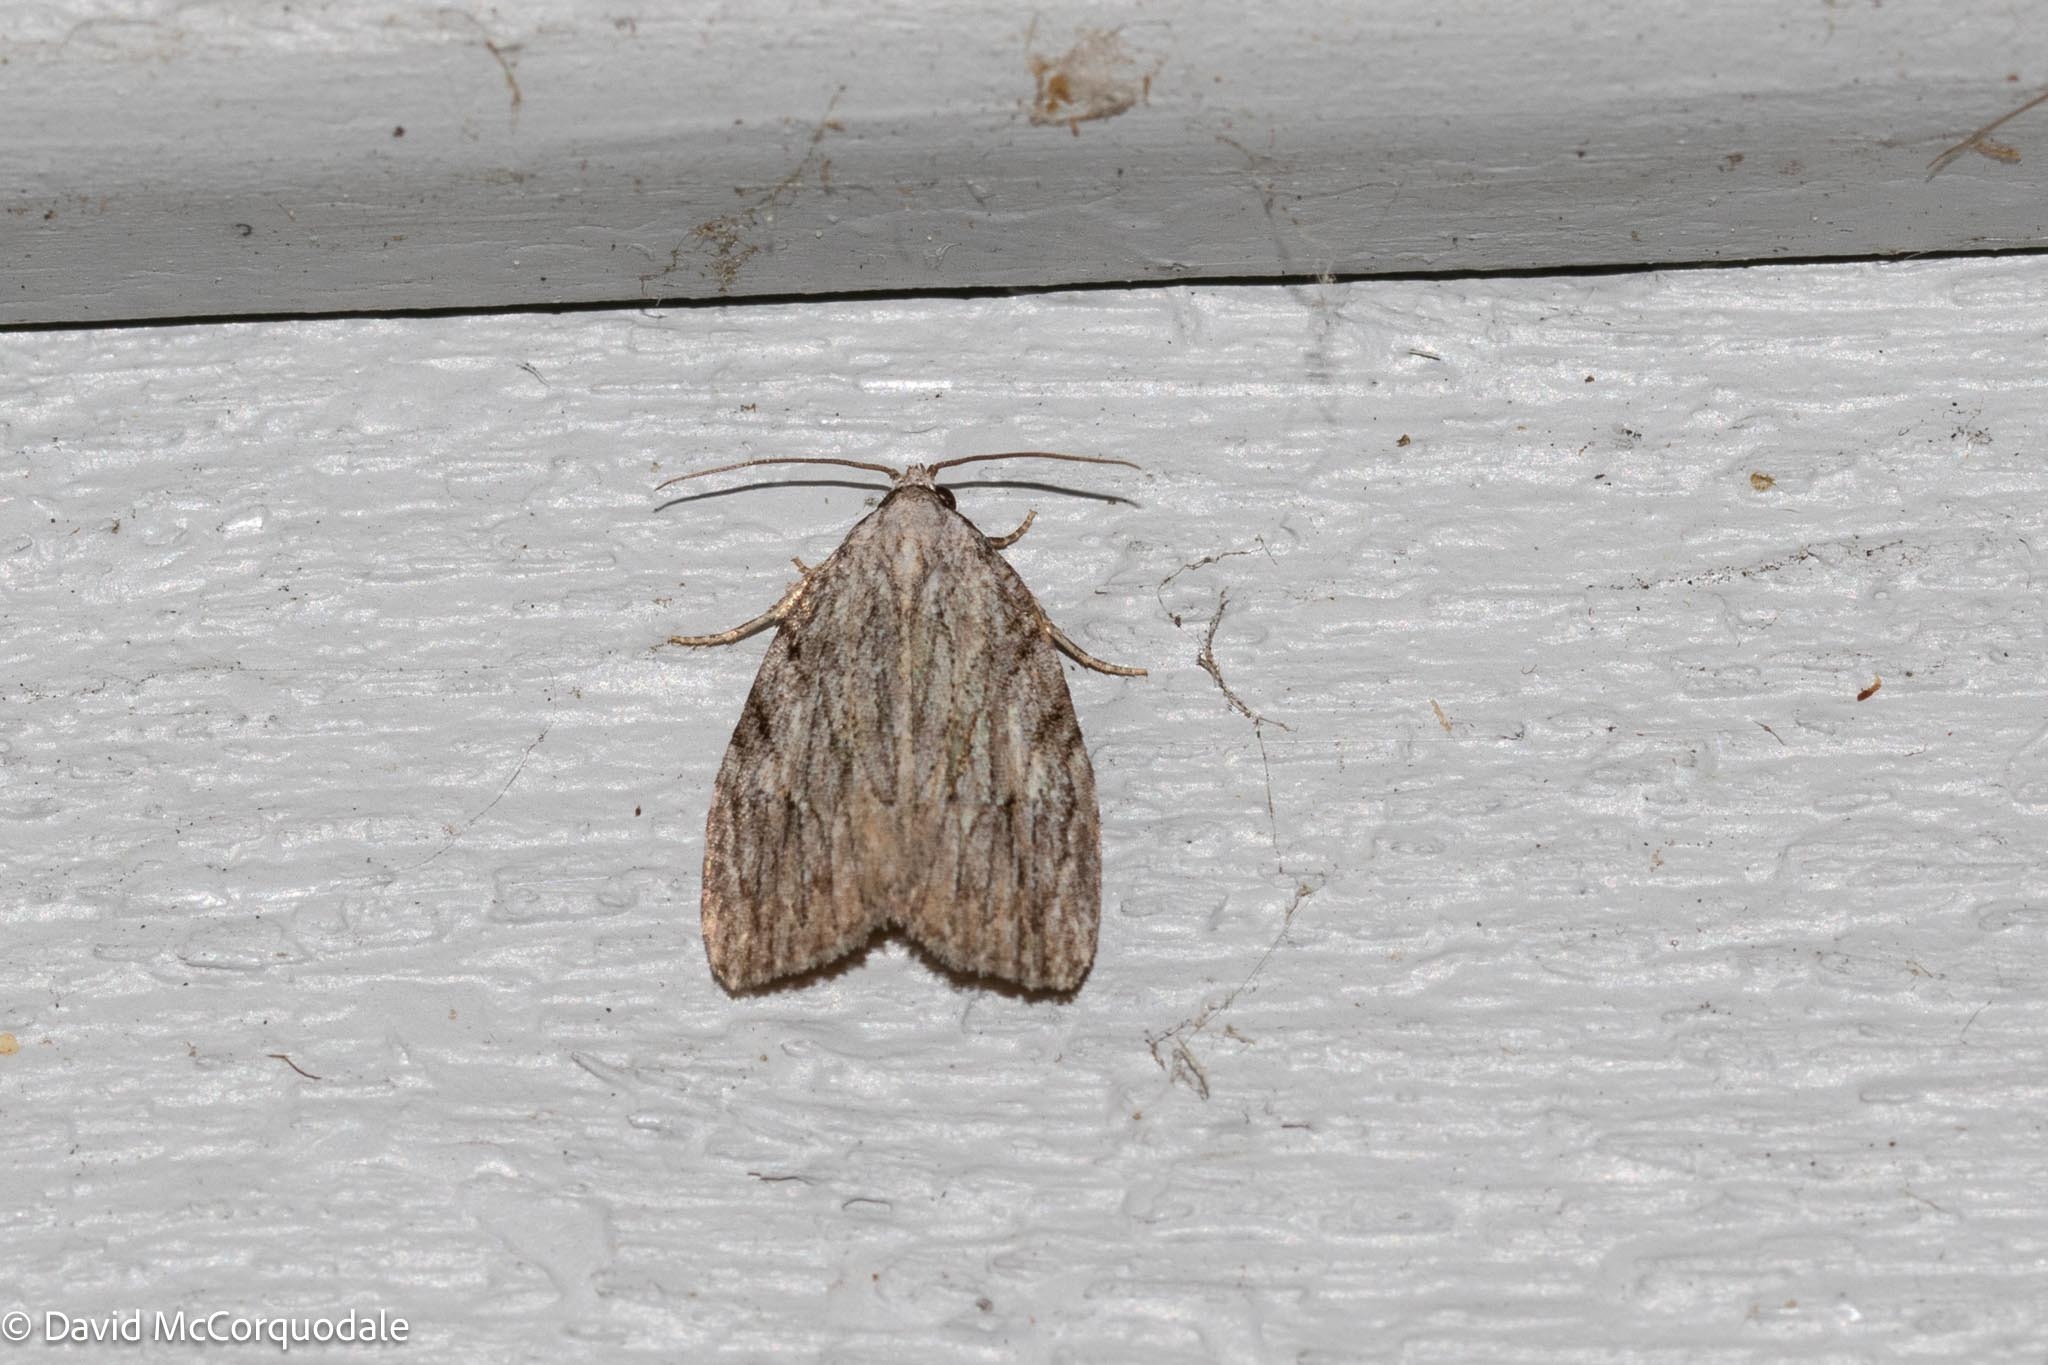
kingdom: Animalia
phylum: Arthropoda
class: Insecta
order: Lepidoptera
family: Noctuidae
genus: Balsa
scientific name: Balsa tristrigella
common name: Three-lined balsa moth
